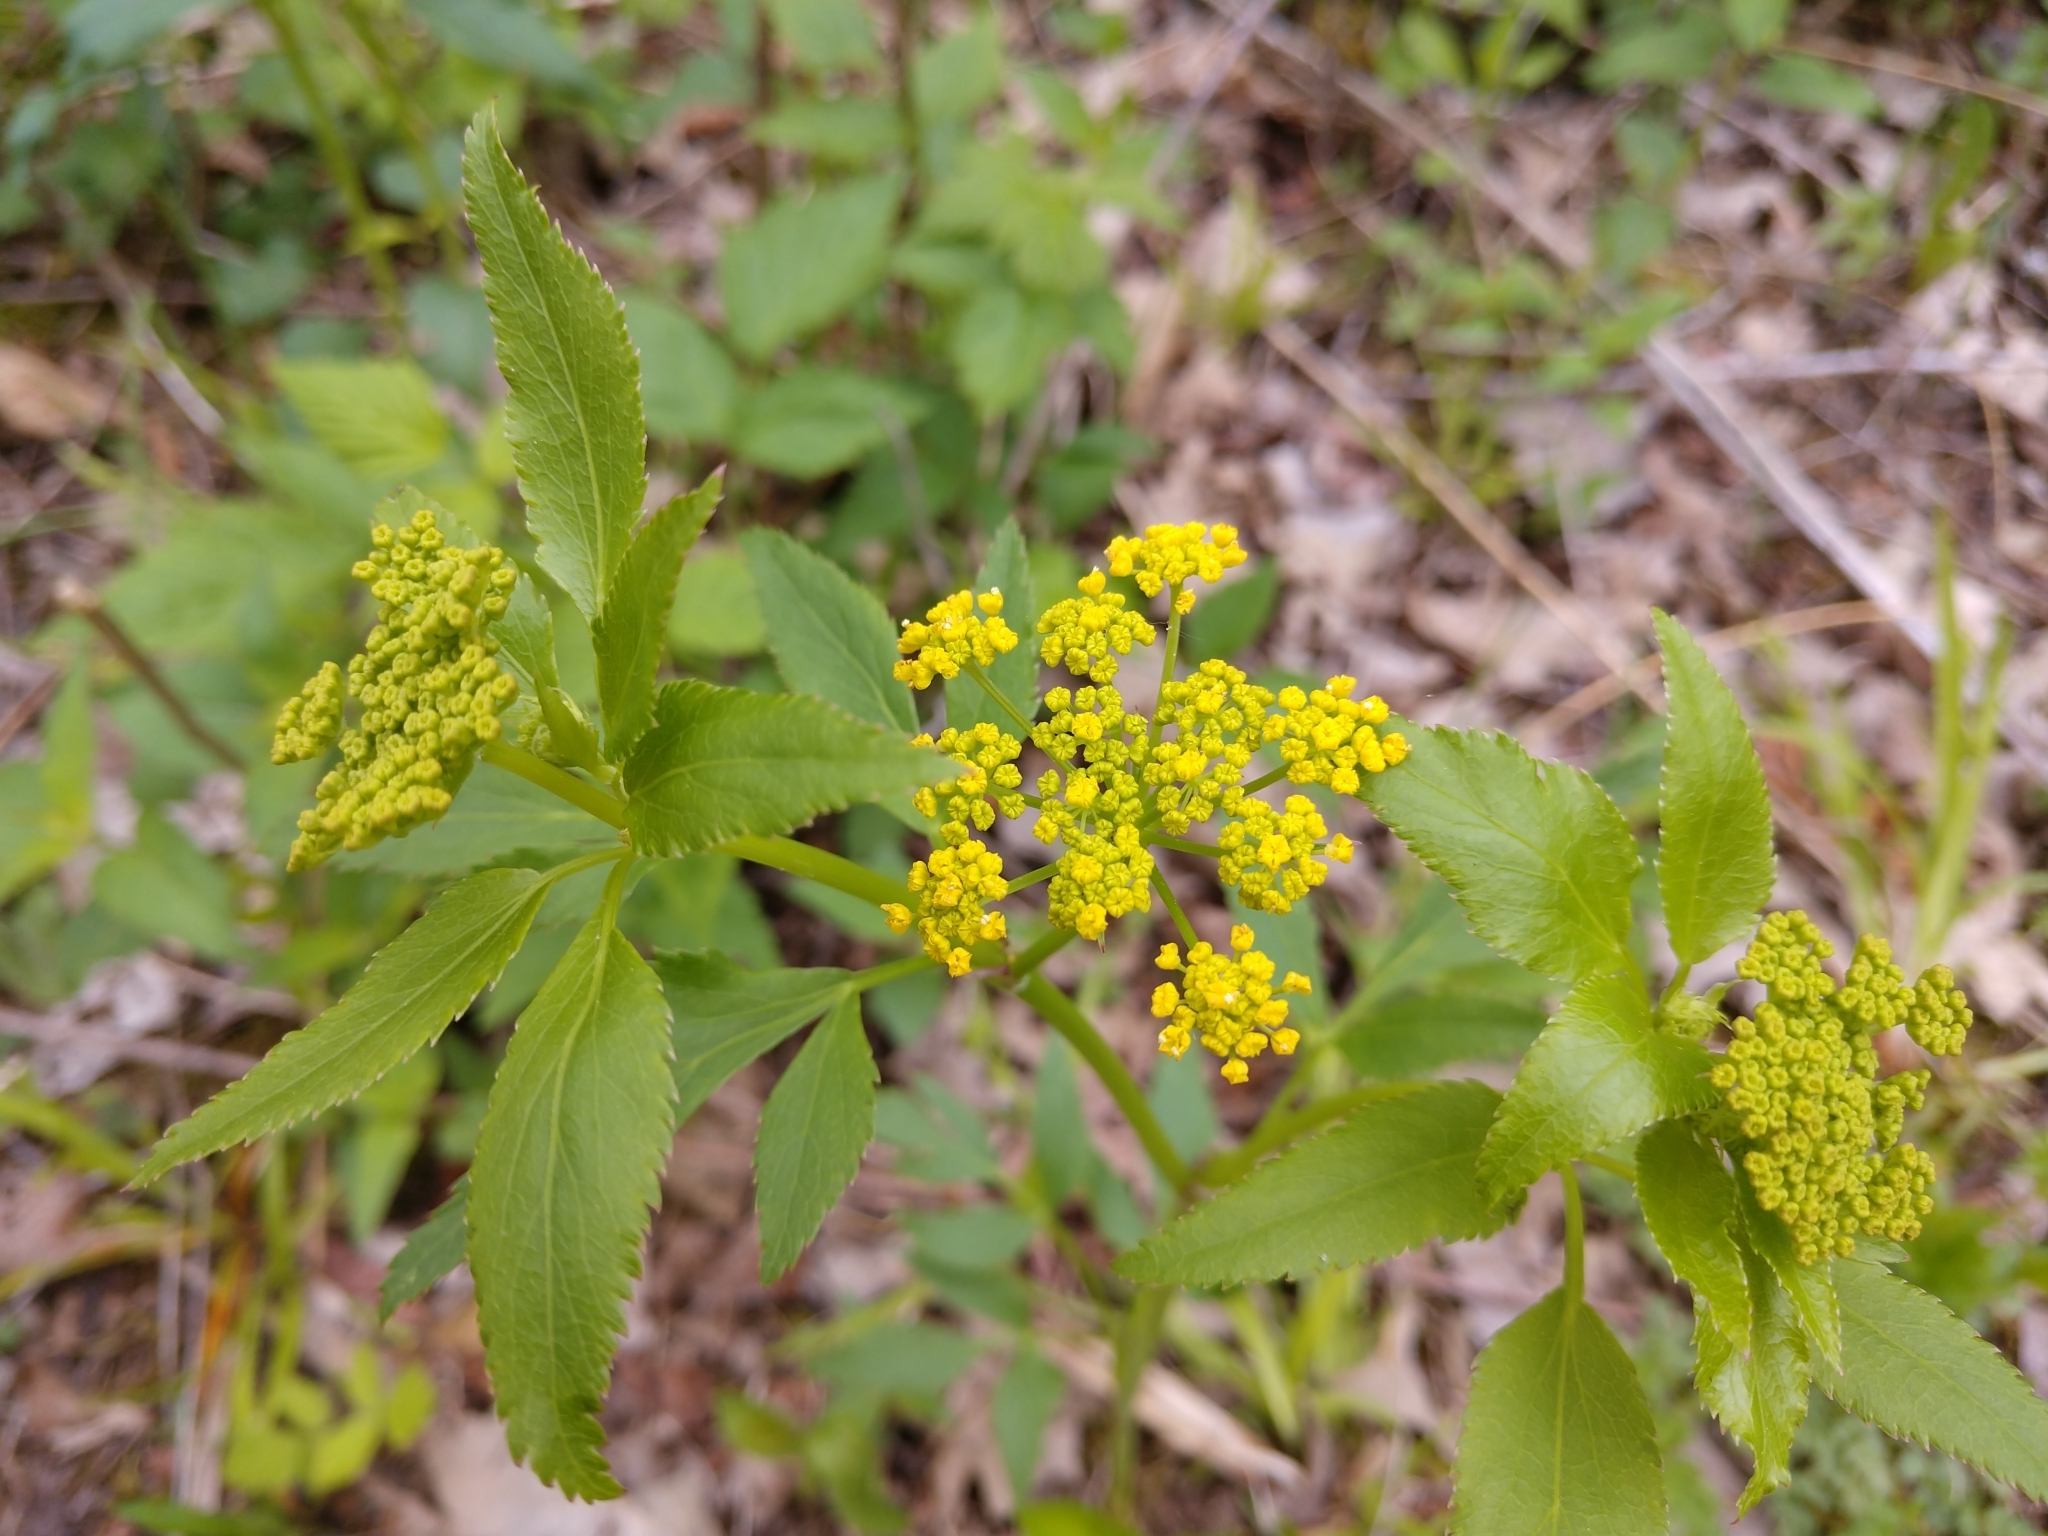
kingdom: Plantae
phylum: Tracheophyta
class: Magnoliopsida
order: Apiales
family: Apiaceae
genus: Zizia
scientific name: Zizia aurea
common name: Golden alexanders
